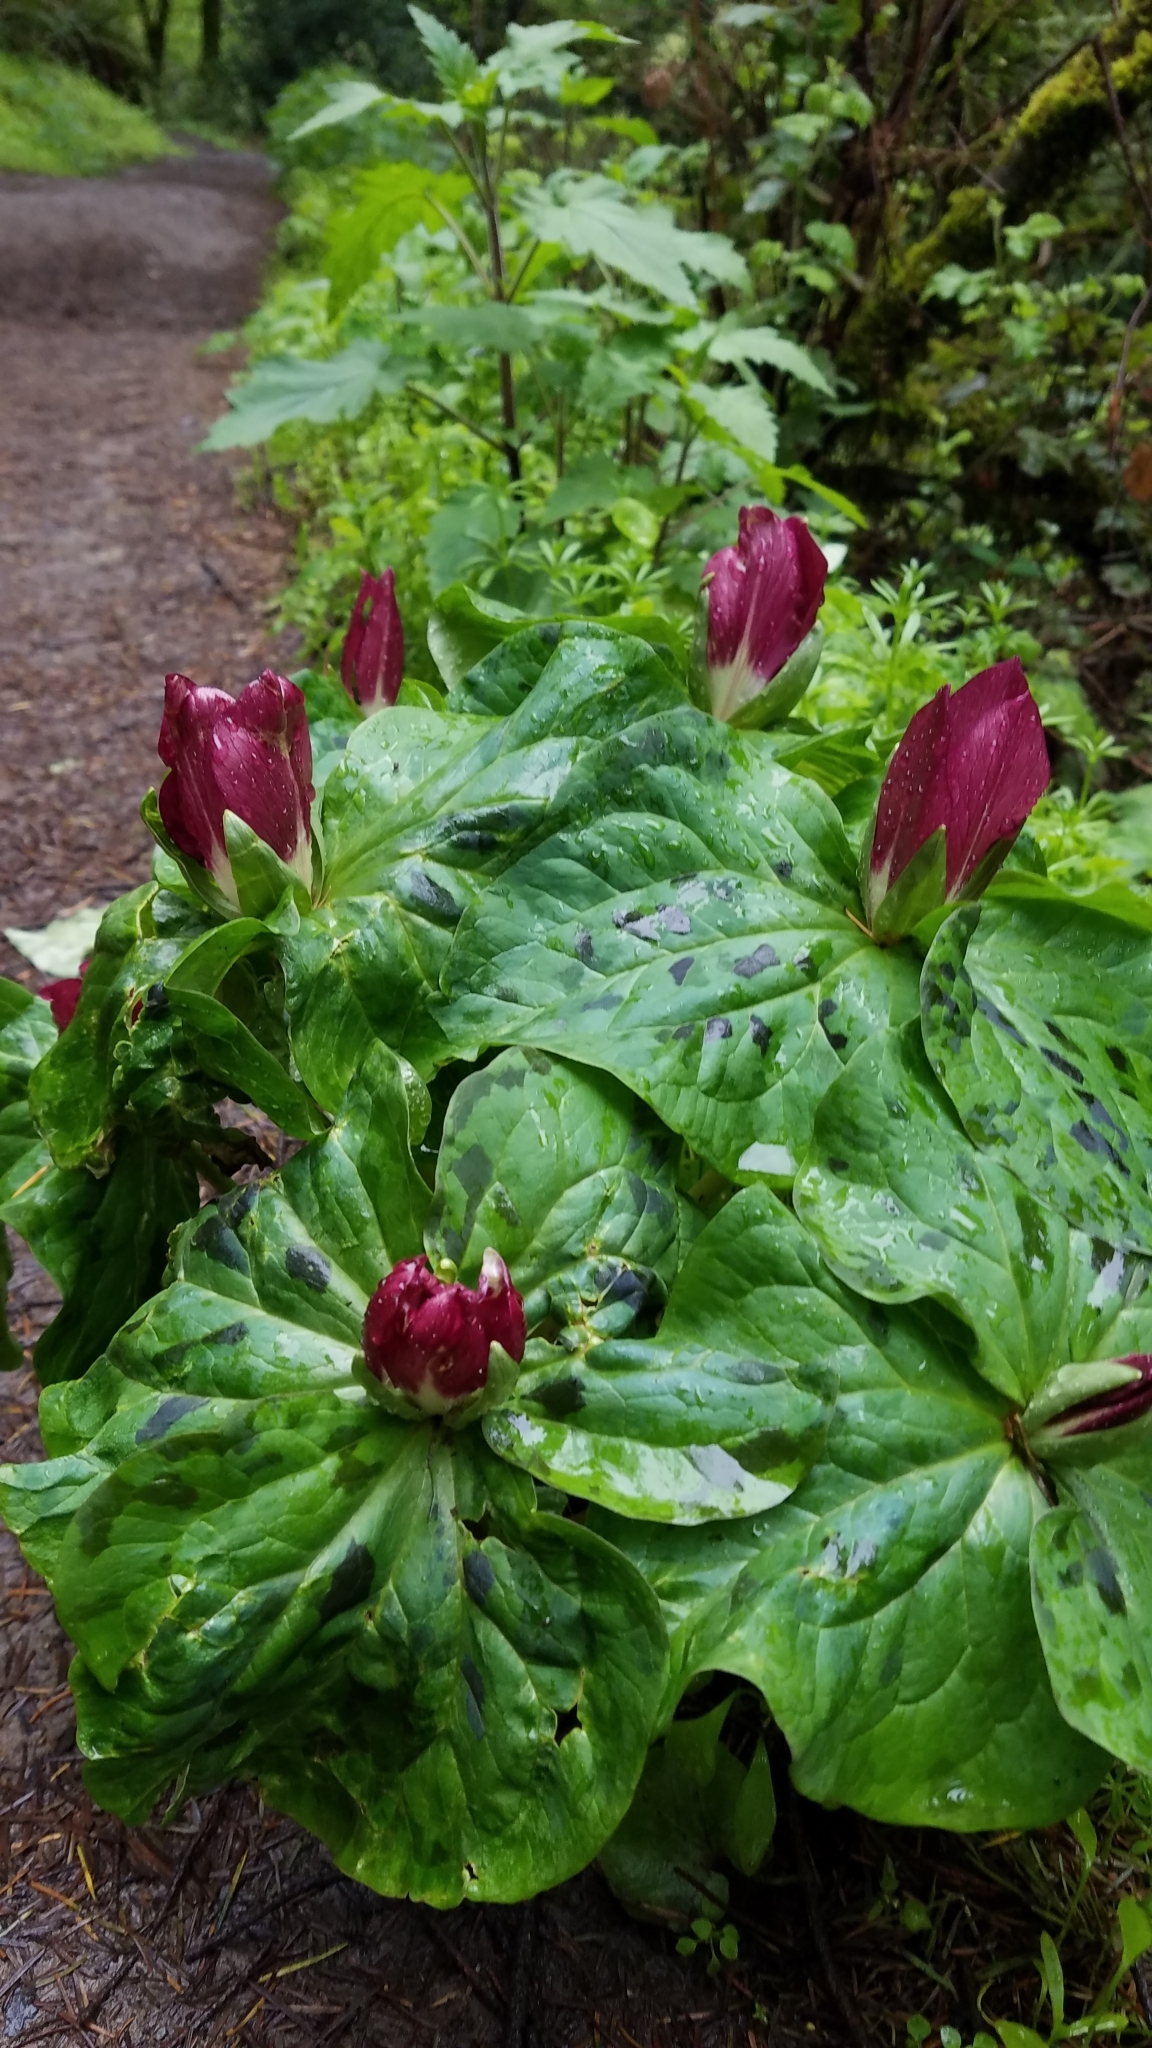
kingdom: Plantae
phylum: Tracheophyta
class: Liliopsida
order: Liliales
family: Melanthiaceae
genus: Trillium
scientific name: Trillium chloropetalum
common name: Giant trillium
